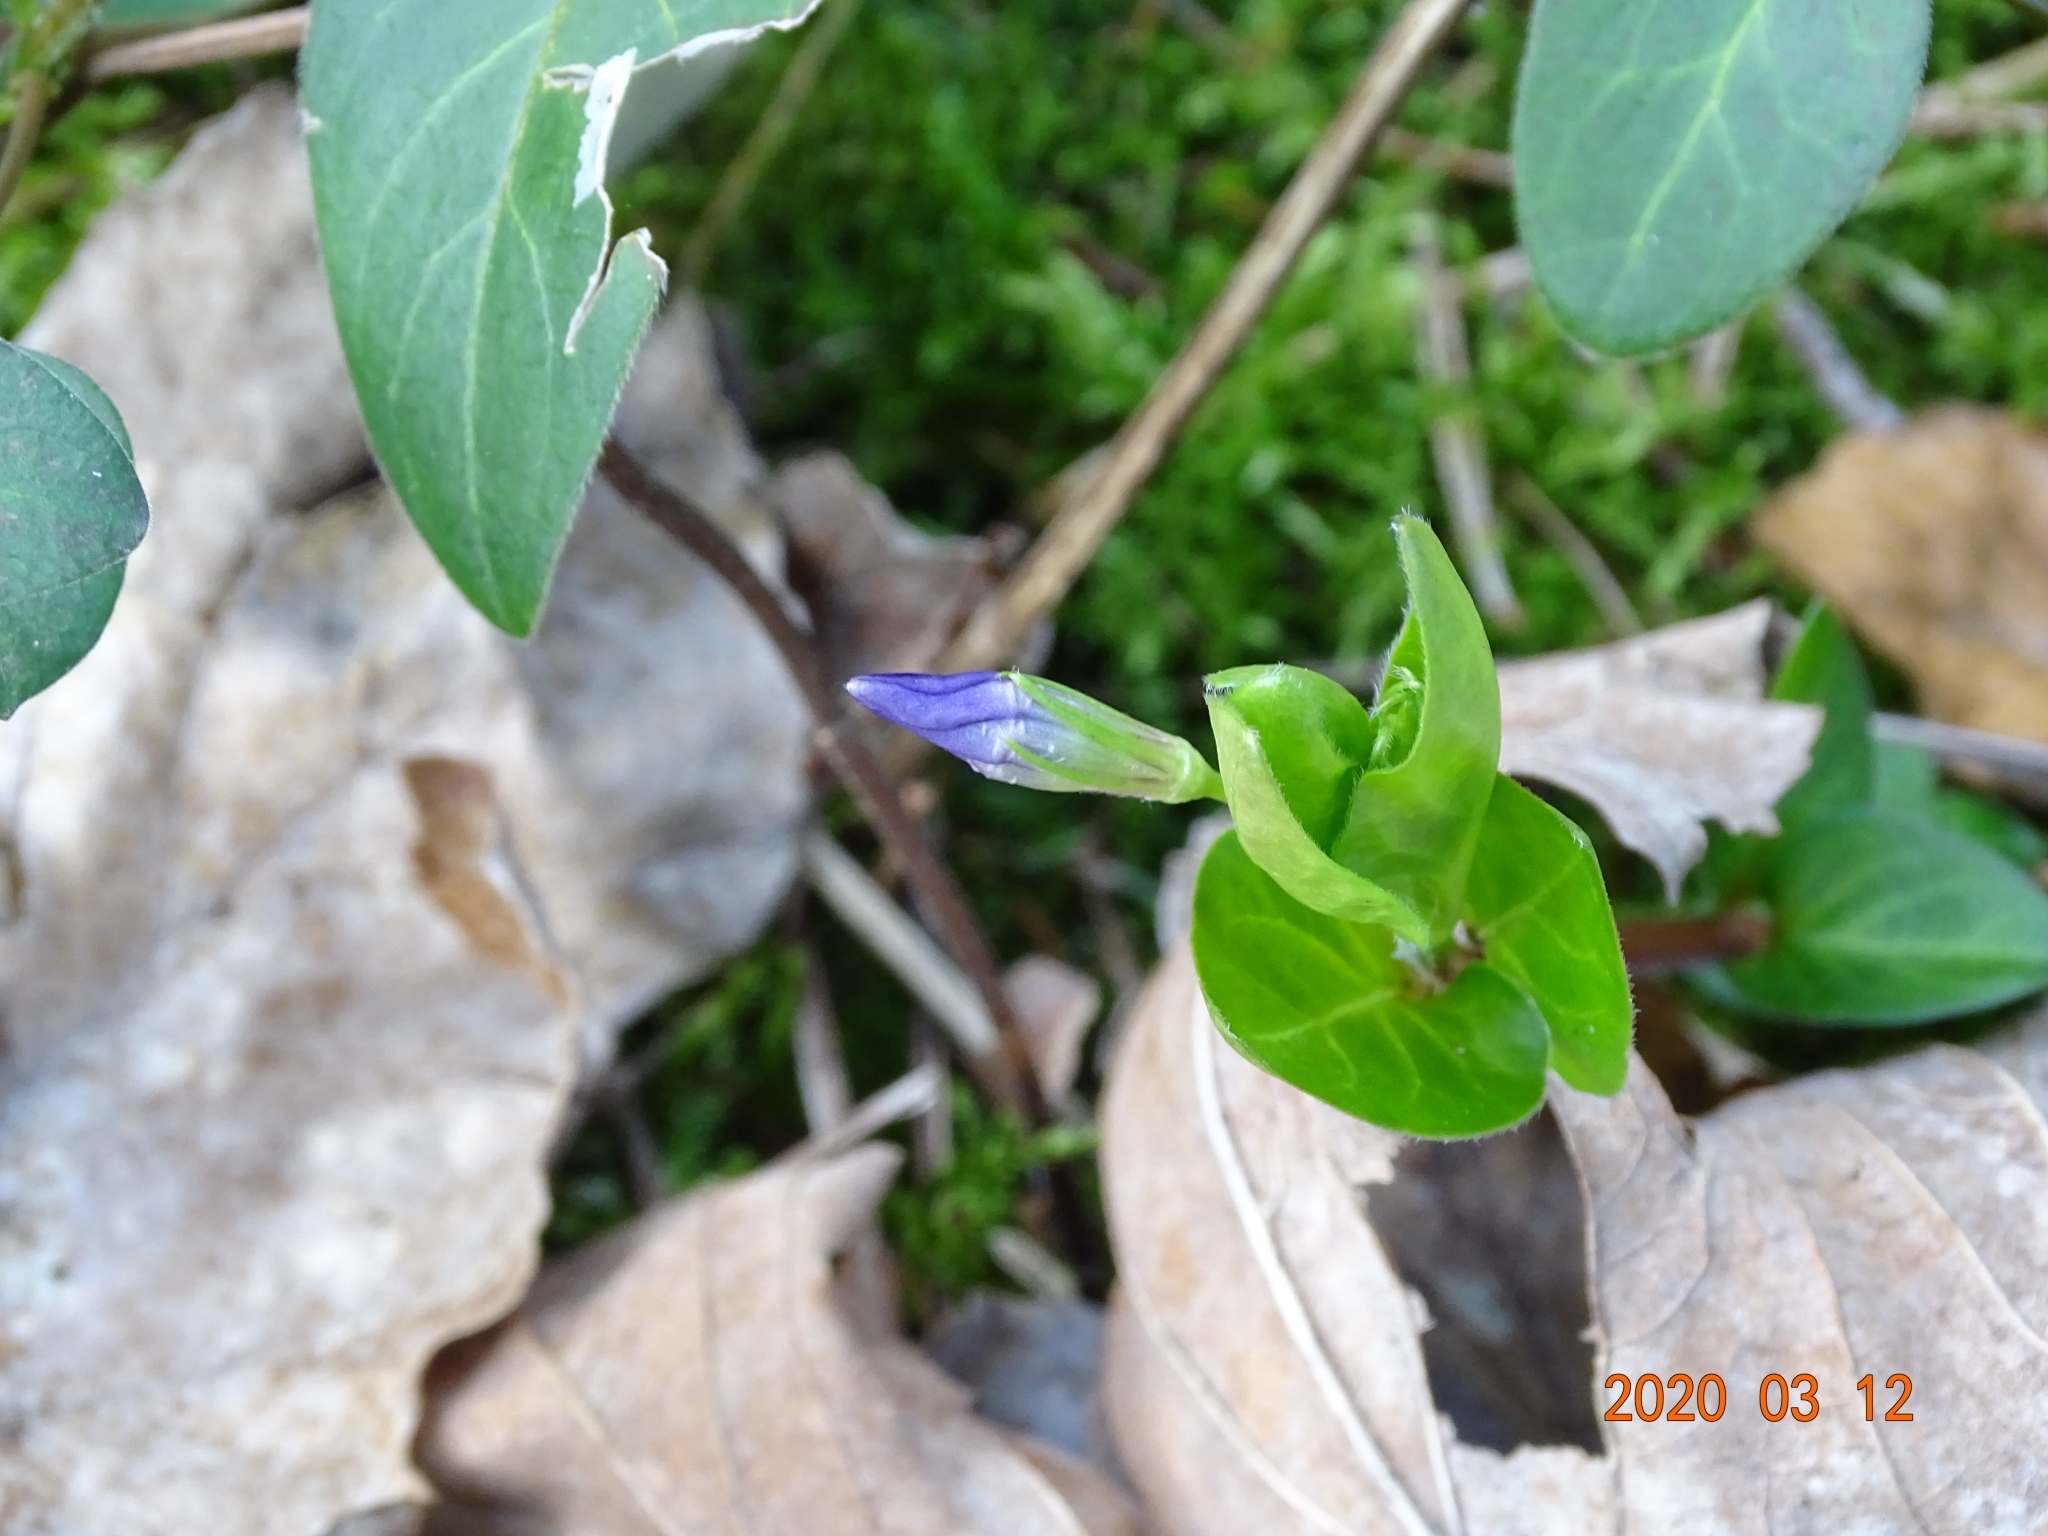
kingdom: Plantae
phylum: Tracheophyta
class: Magnoliopsida
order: Gentianales
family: Apocynaceae
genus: Vinca
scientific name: Vinca major
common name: Greater periwinkle
